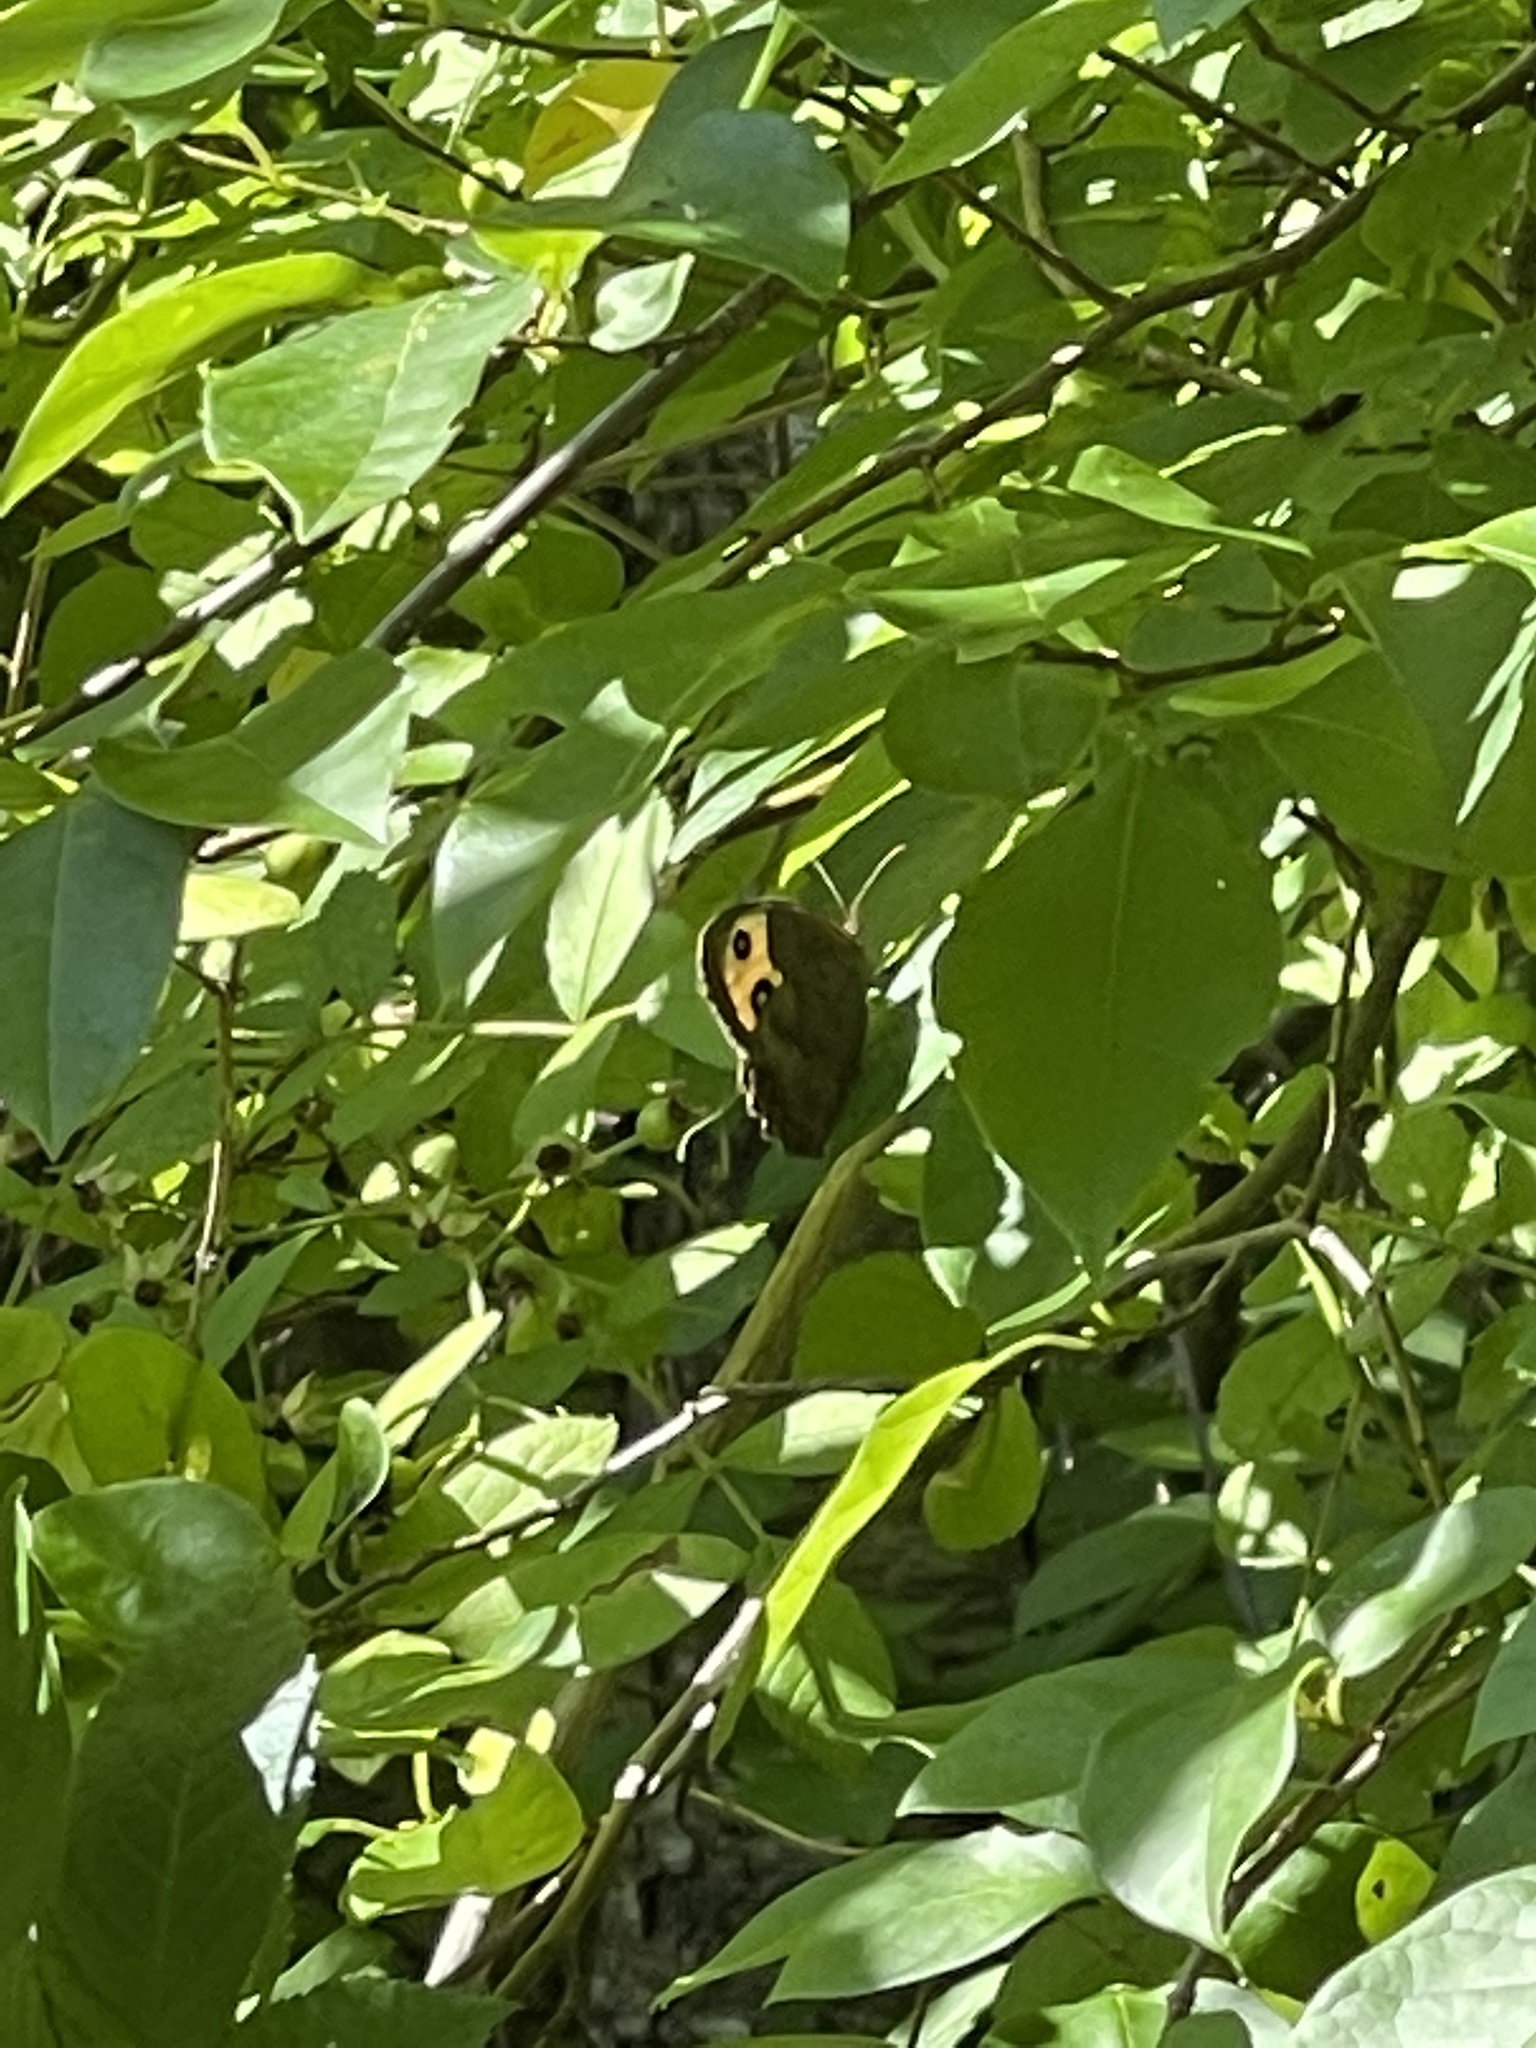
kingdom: Animalia
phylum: Arthropoda
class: Insecta
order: Lepidoptera
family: Nymphalidae
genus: Cercyonis
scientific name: Cercyonis pegala
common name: Common wood-nymph
